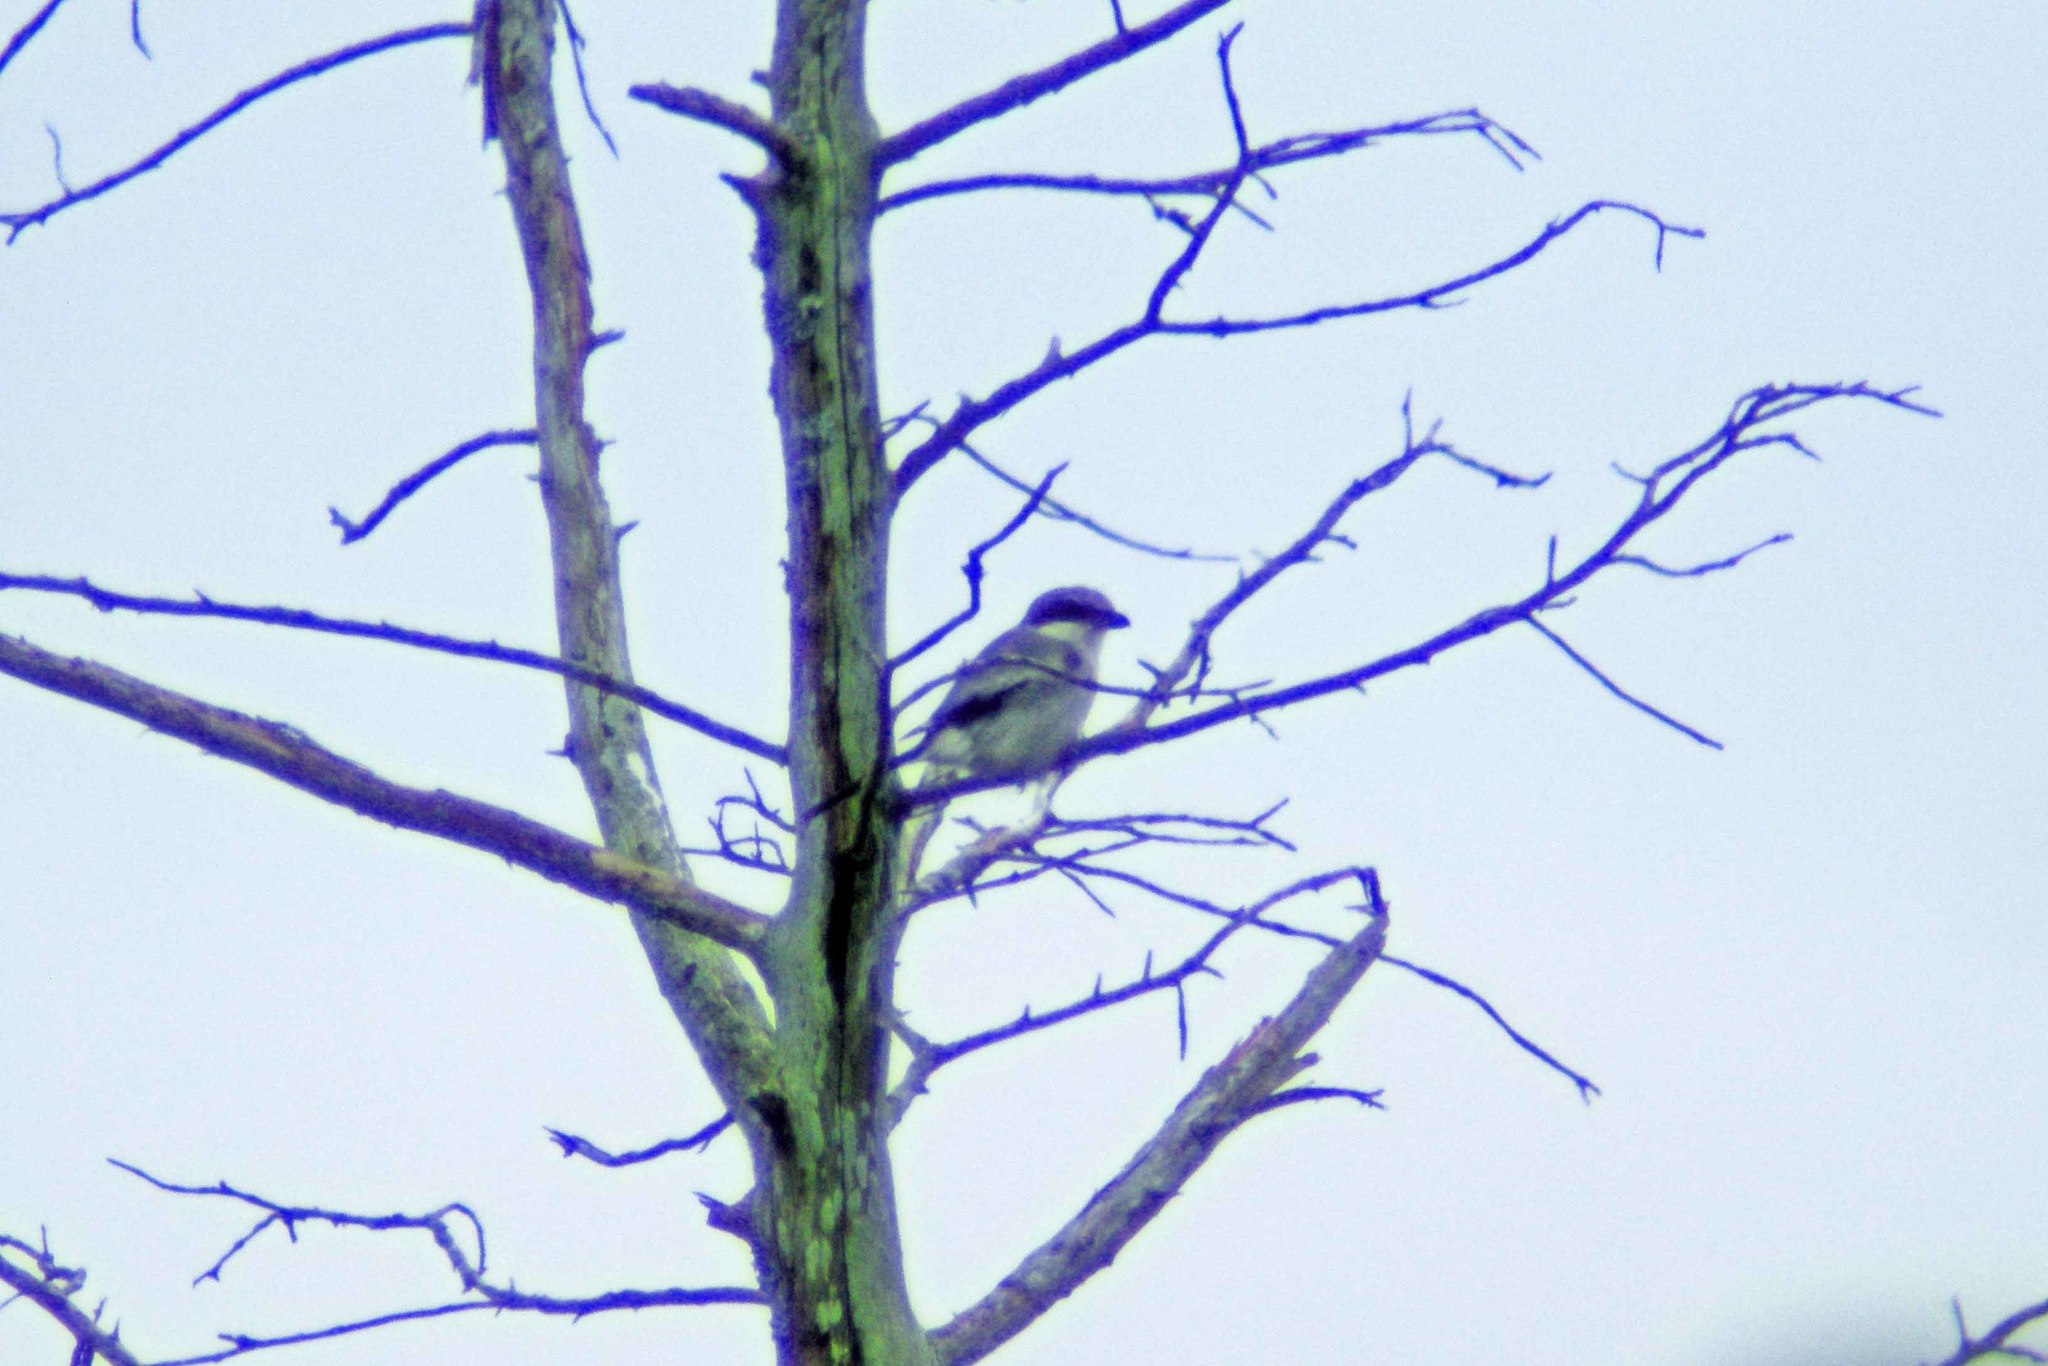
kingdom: Animalia
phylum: Chordata
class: Aves
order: Passeriformes
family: Laniidae
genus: Lanius
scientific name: Lanius ludovicianus
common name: Loggerhead shrike
